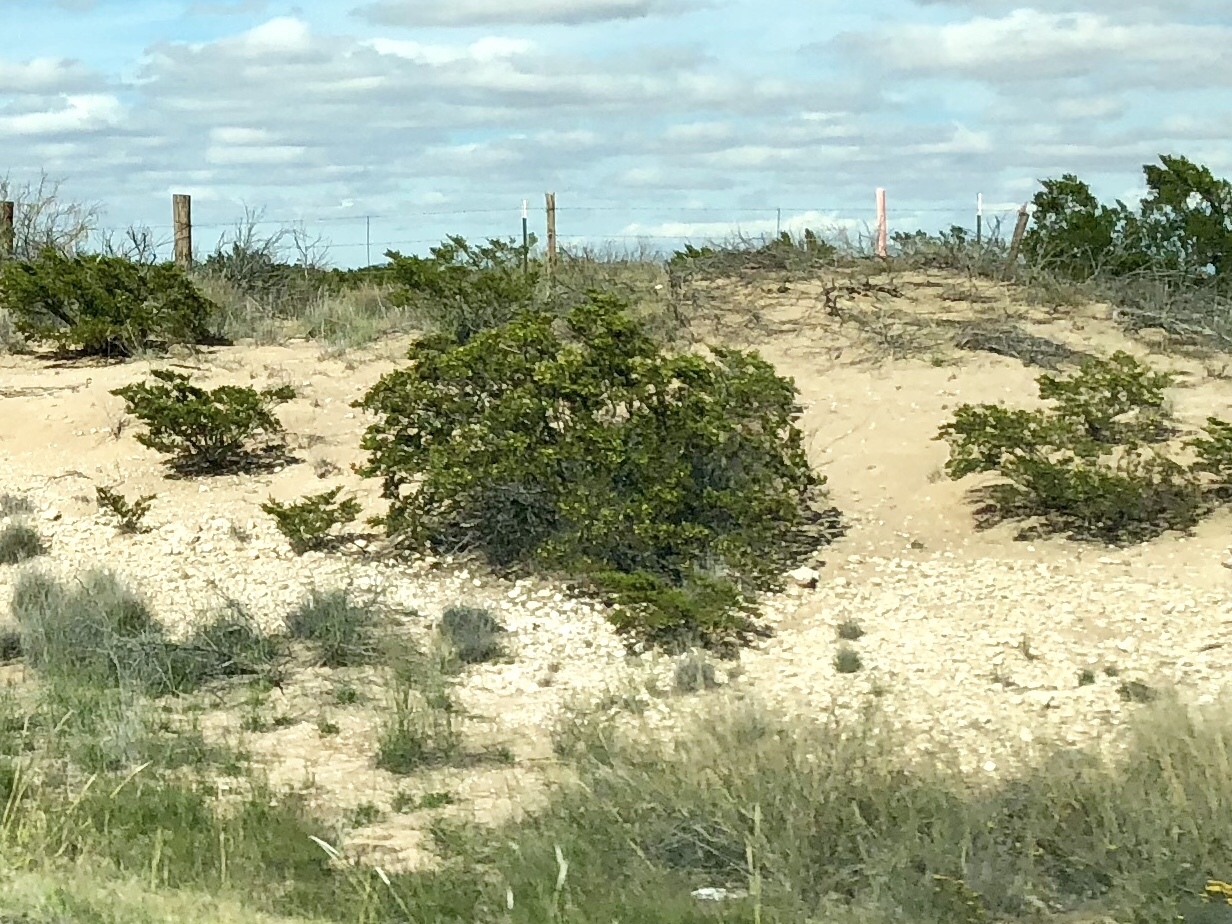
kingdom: Plantae
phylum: Tracheophyta
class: Magnoliopsida
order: Zygophyllales
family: Zygophyllaceae
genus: Larrea
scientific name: Larrea tridentata
